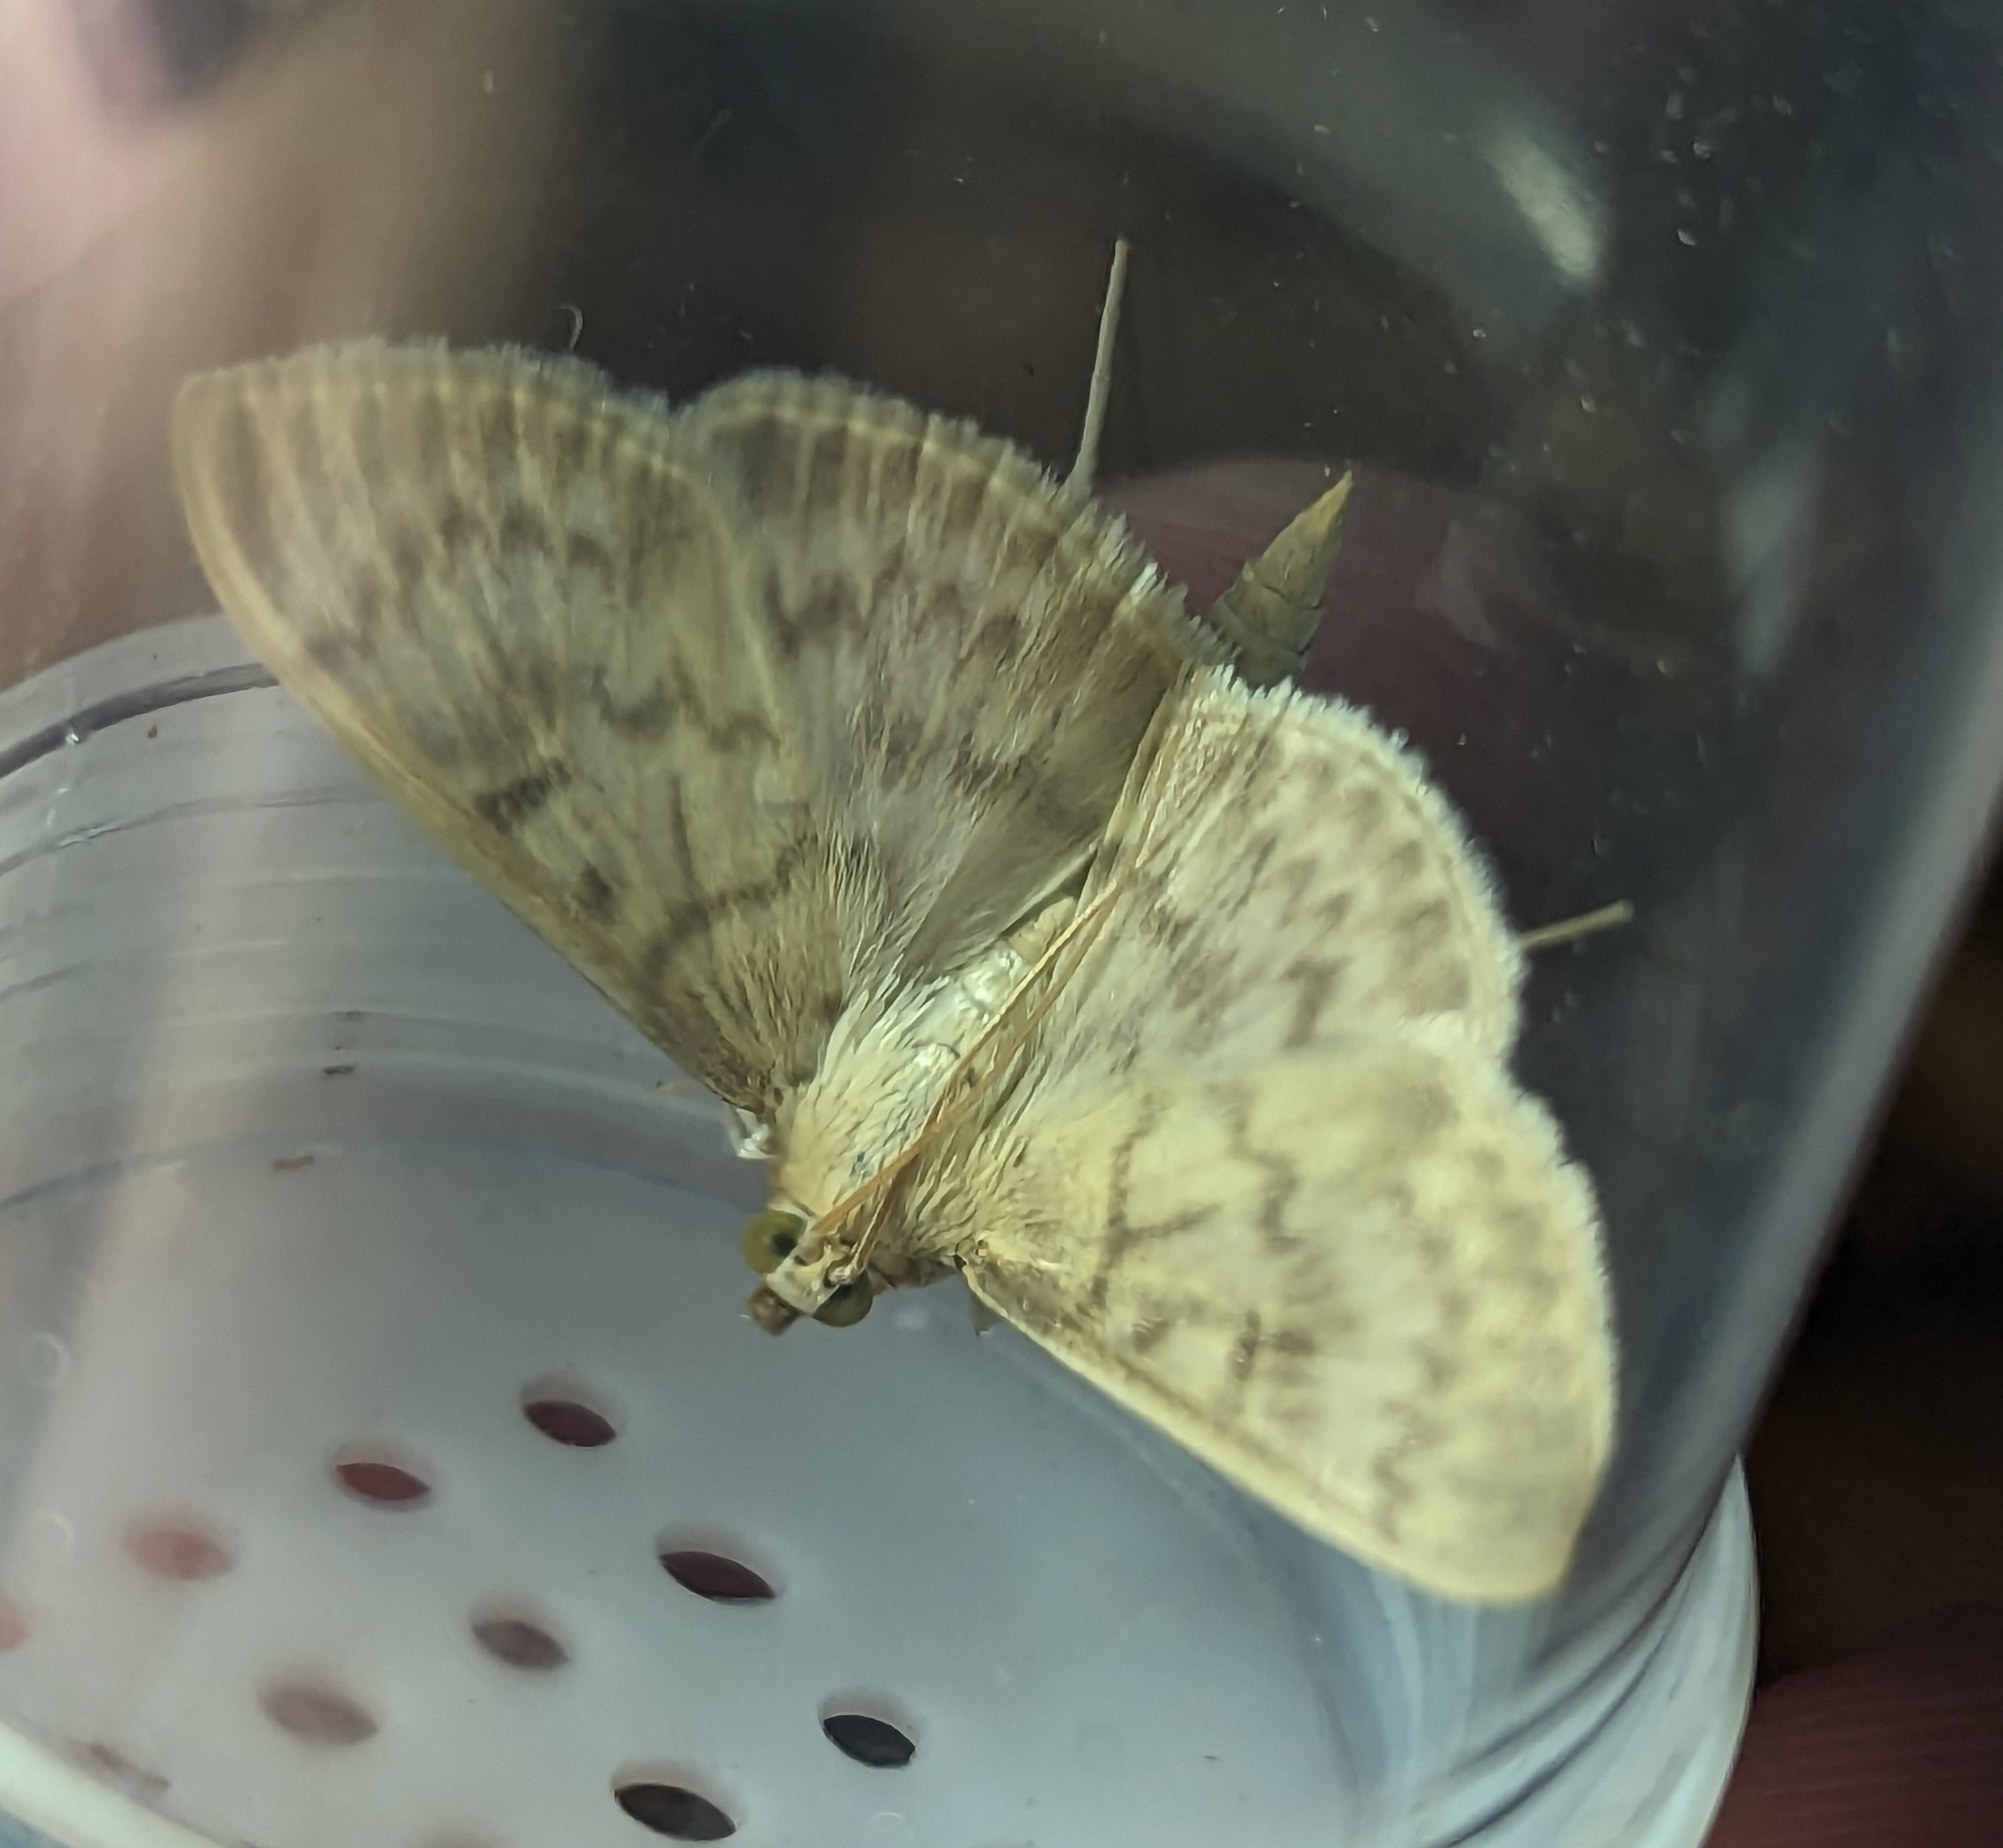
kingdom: Animalia
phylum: Arthropoda
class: Insecta
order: Lepidoptera
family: Crambidae
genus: Patania
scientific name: Patania ruralis
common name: Mother of pearl
